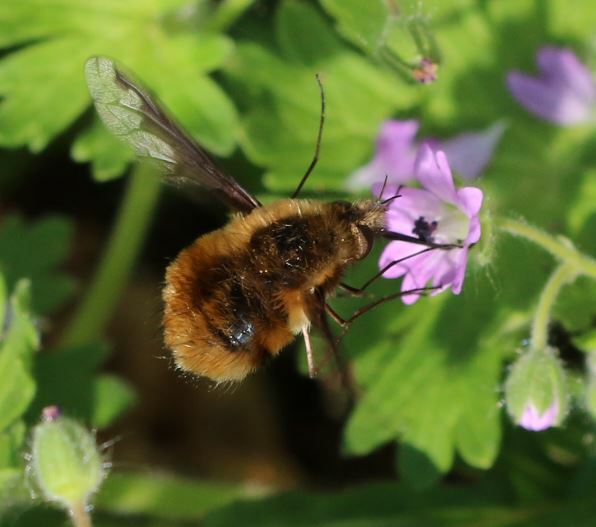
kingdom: Animalia
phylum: Arthropoda
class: Insecta
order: Diptera
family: Bombyliidae
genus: Bombylius
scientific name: Bombylius major
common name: Bee fly
